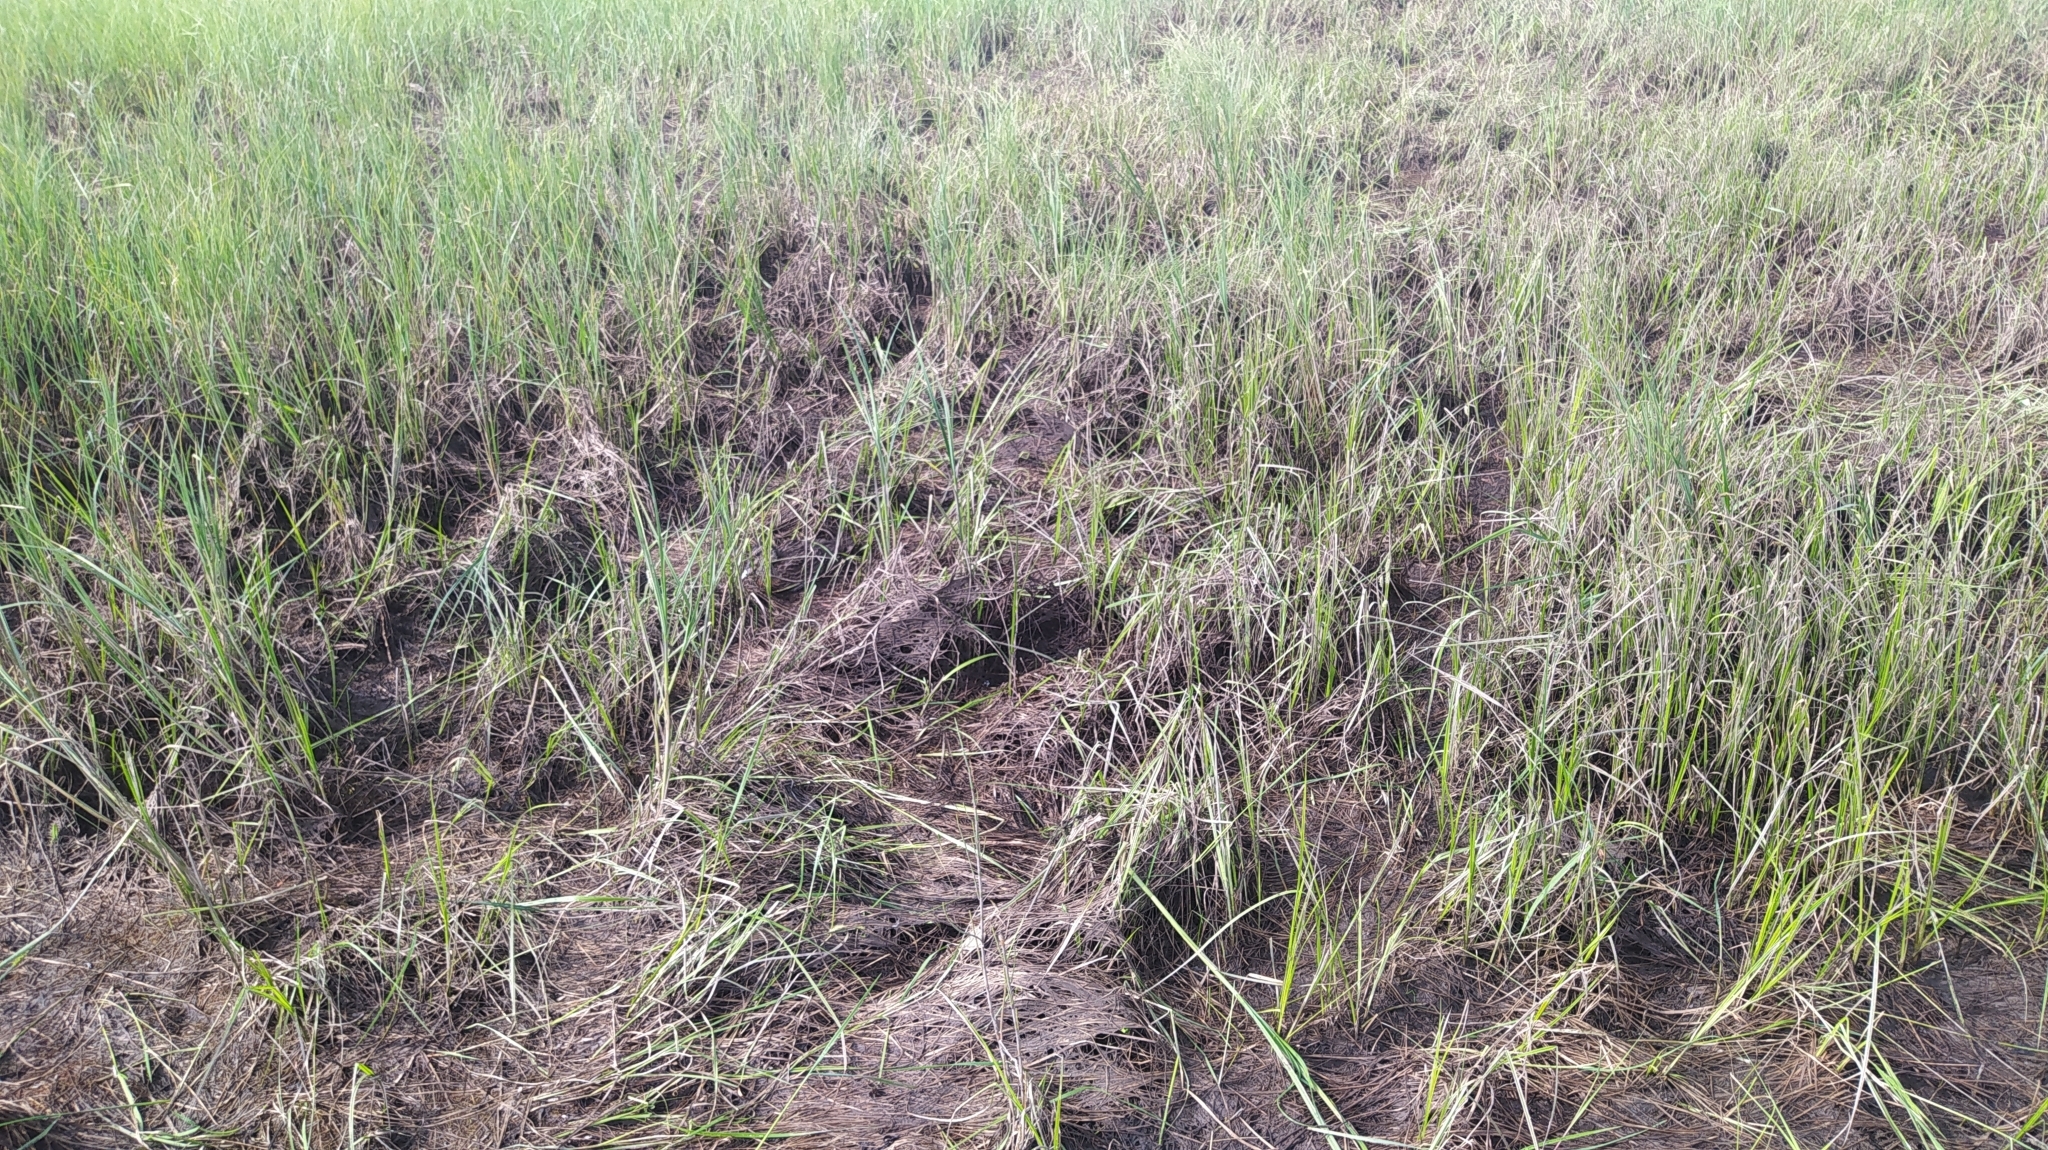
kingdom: Animalia
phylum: Chordata
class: Aves
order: Anseriformes
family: Anatidae
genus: Anas
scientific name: Anas platyrhynchos
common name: Mallard
